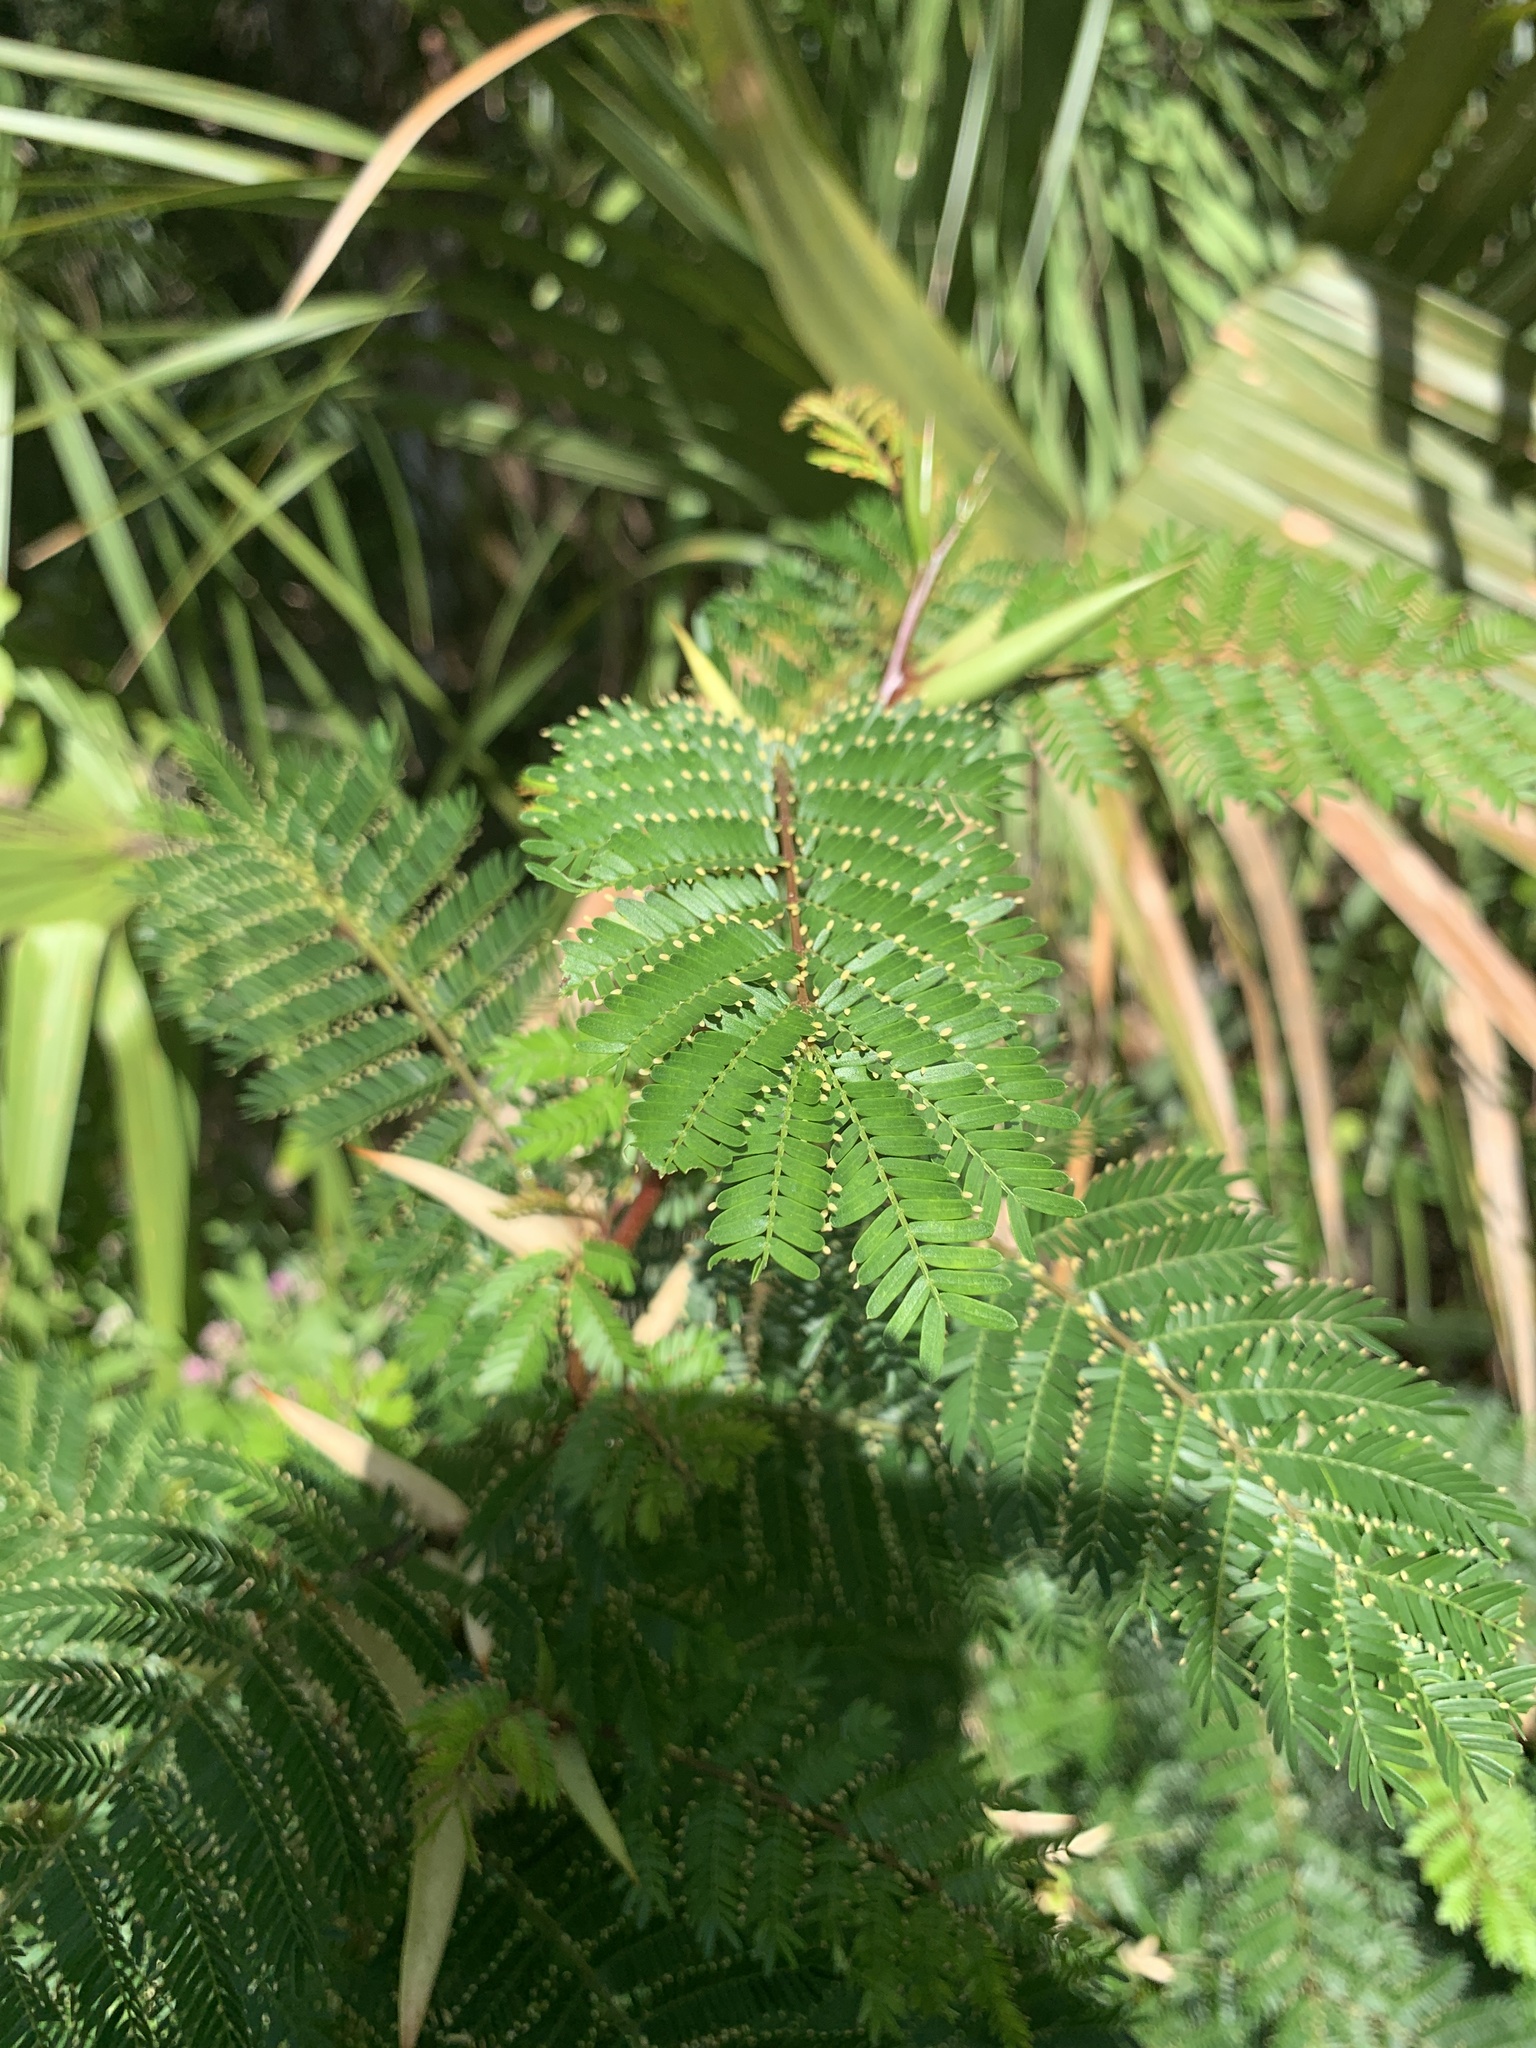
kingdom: Plantae
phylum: Tracheophyta
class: Magnoliopsida
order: Fabales
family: Fabaceae
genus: Vachellia
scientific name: Vachellia cornigera
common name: Bullhorn wattle
